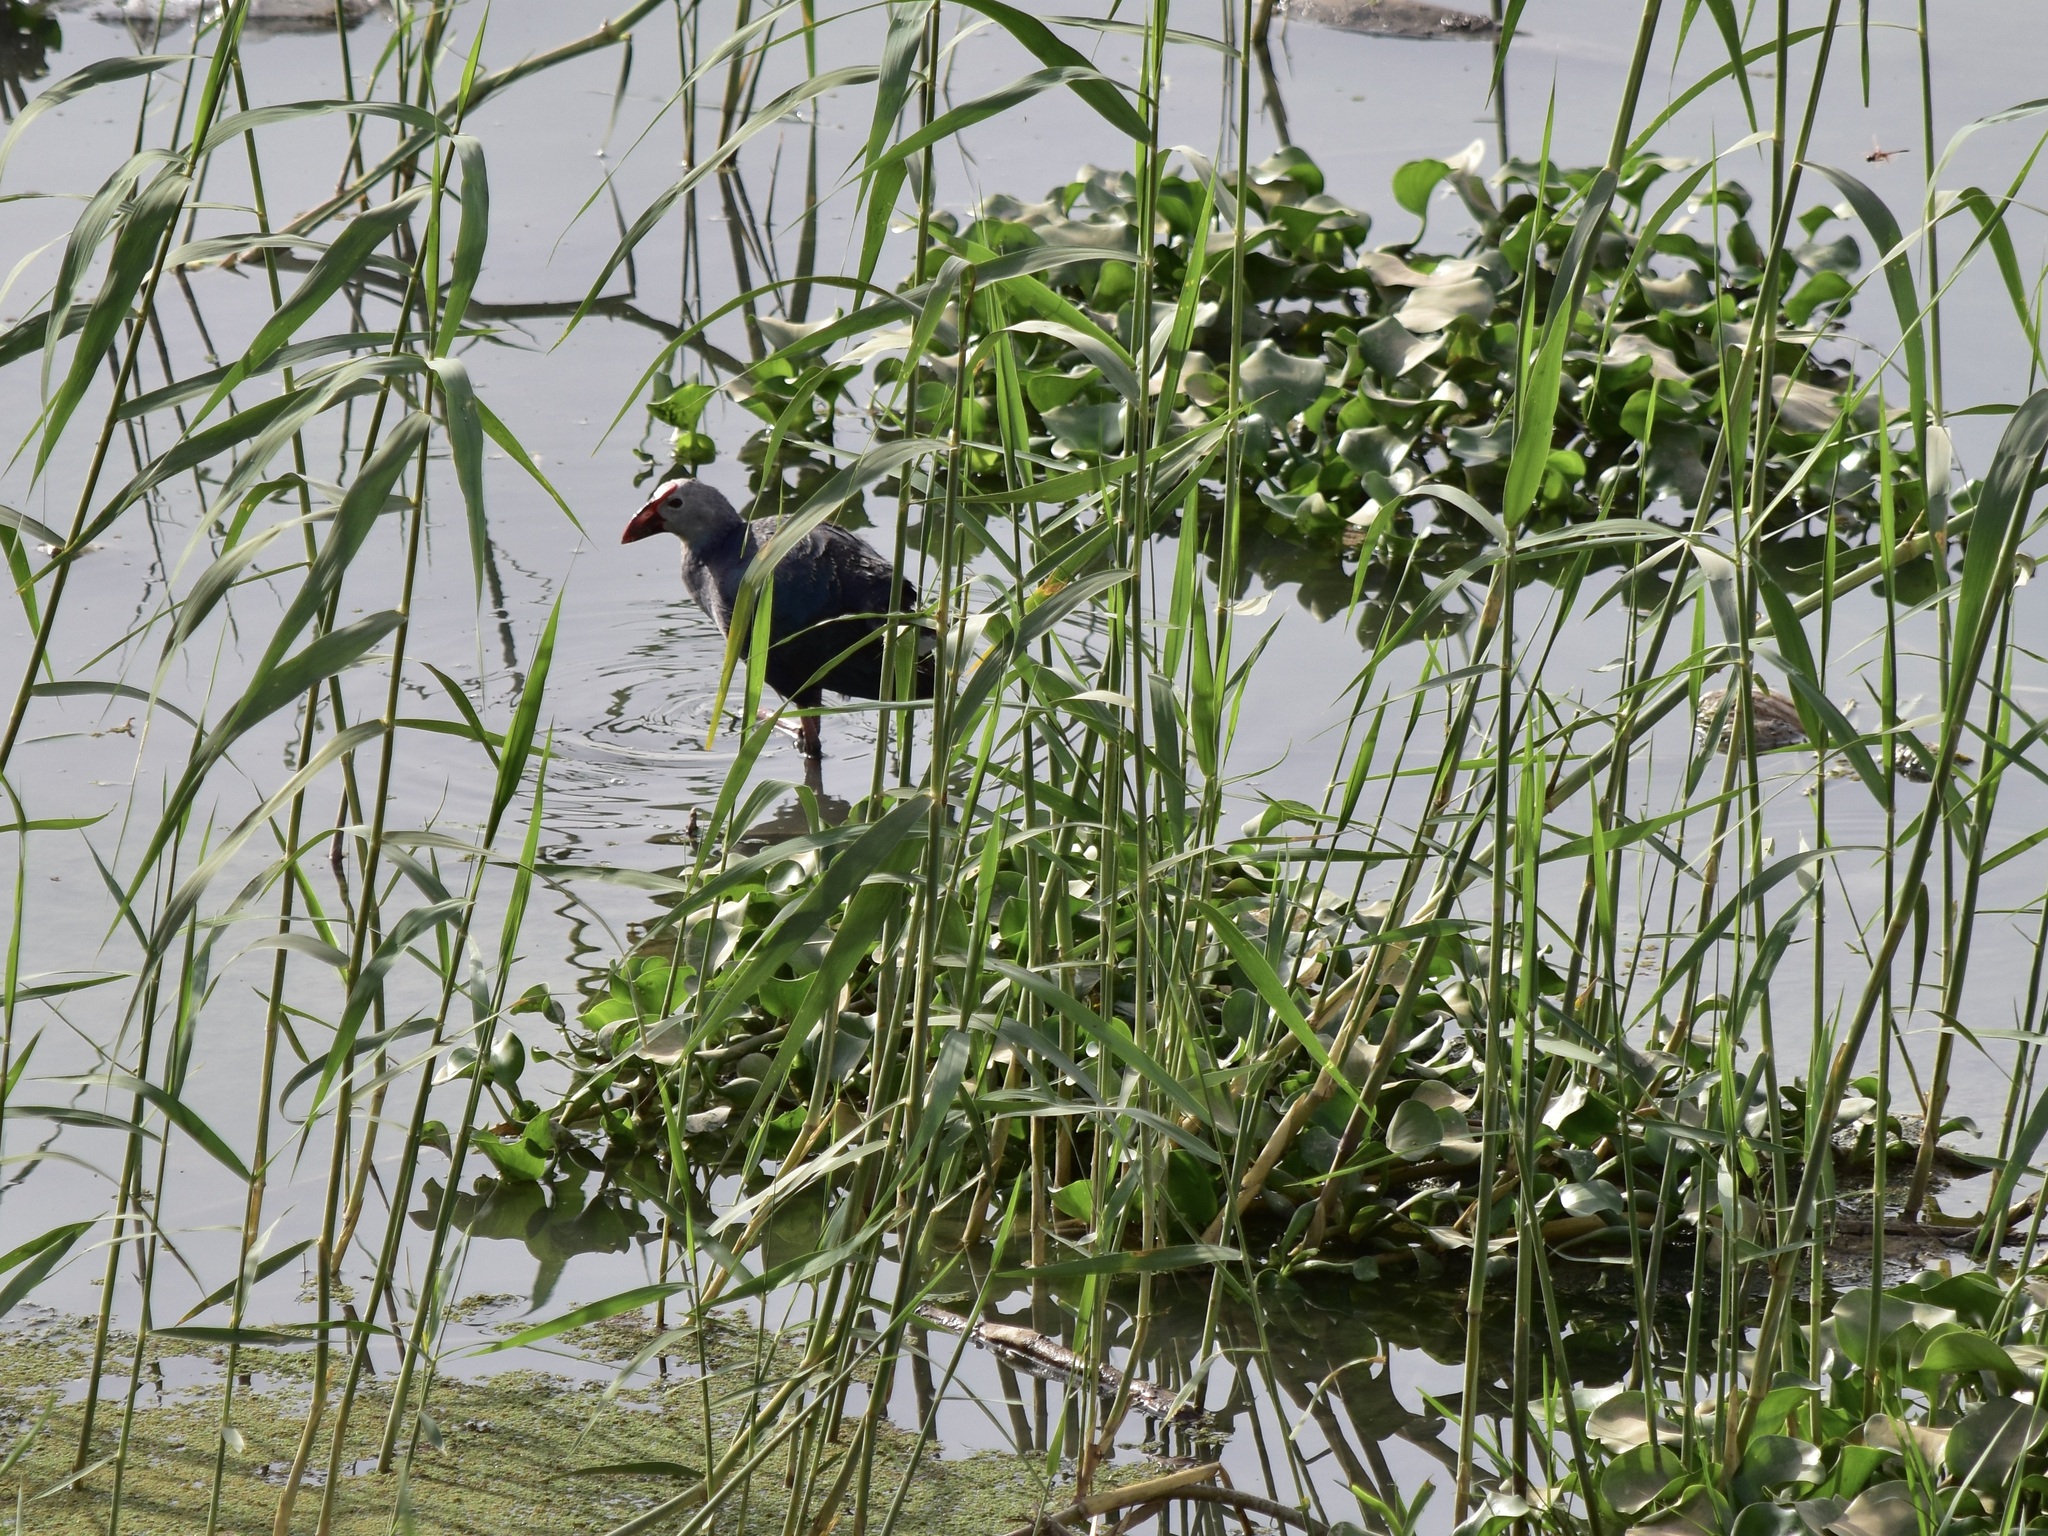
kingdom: Animalia
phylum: Chordata
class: Aves
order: Gruiformes
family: Rallidae
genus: Porphyrio
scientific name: Porphyrio porphyrio
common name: Purple swamphen
